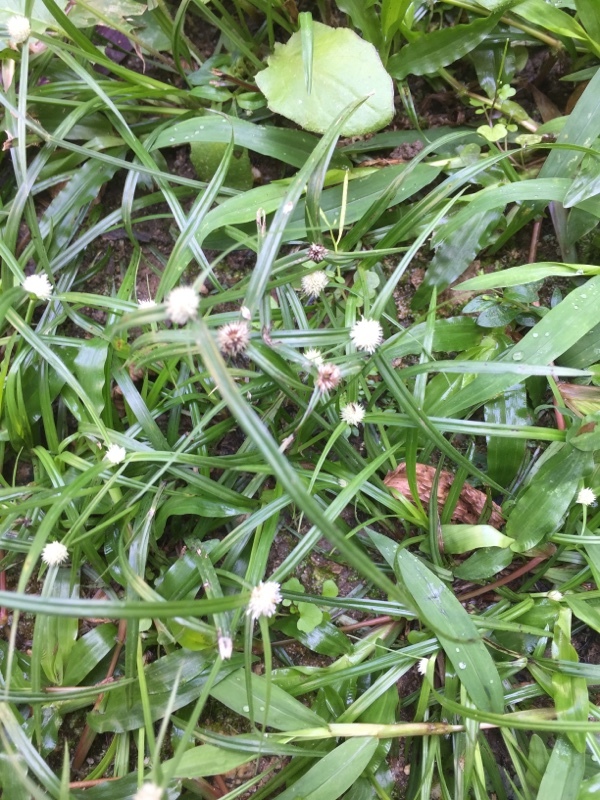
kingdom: Plantae
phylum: Tracheophyta
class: Liliopsida
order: Poales
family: Cyperaceae
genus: Cyperus
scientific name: Cyperus mindorensis
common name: Flatsedge
